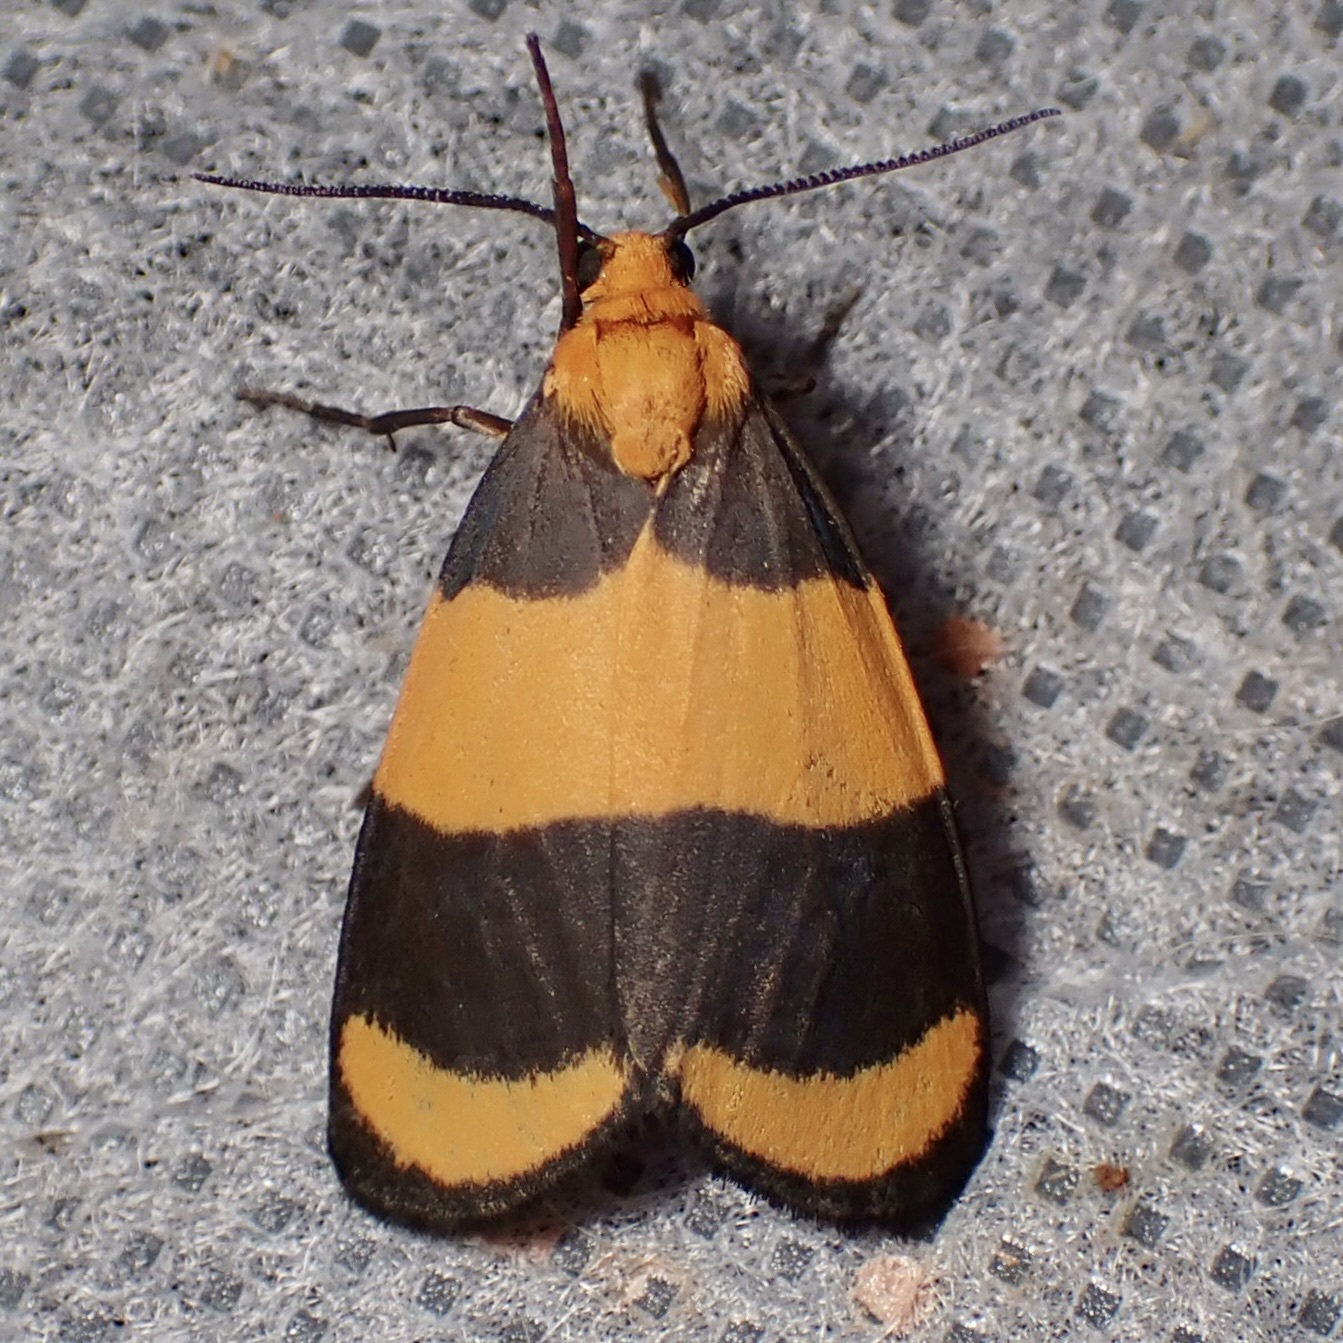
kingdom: Animalia
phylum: Arthropoda
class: Insecta
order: Lepidoptera
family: Erebidae
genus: Eudesmia
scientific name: Eudesmia arida
